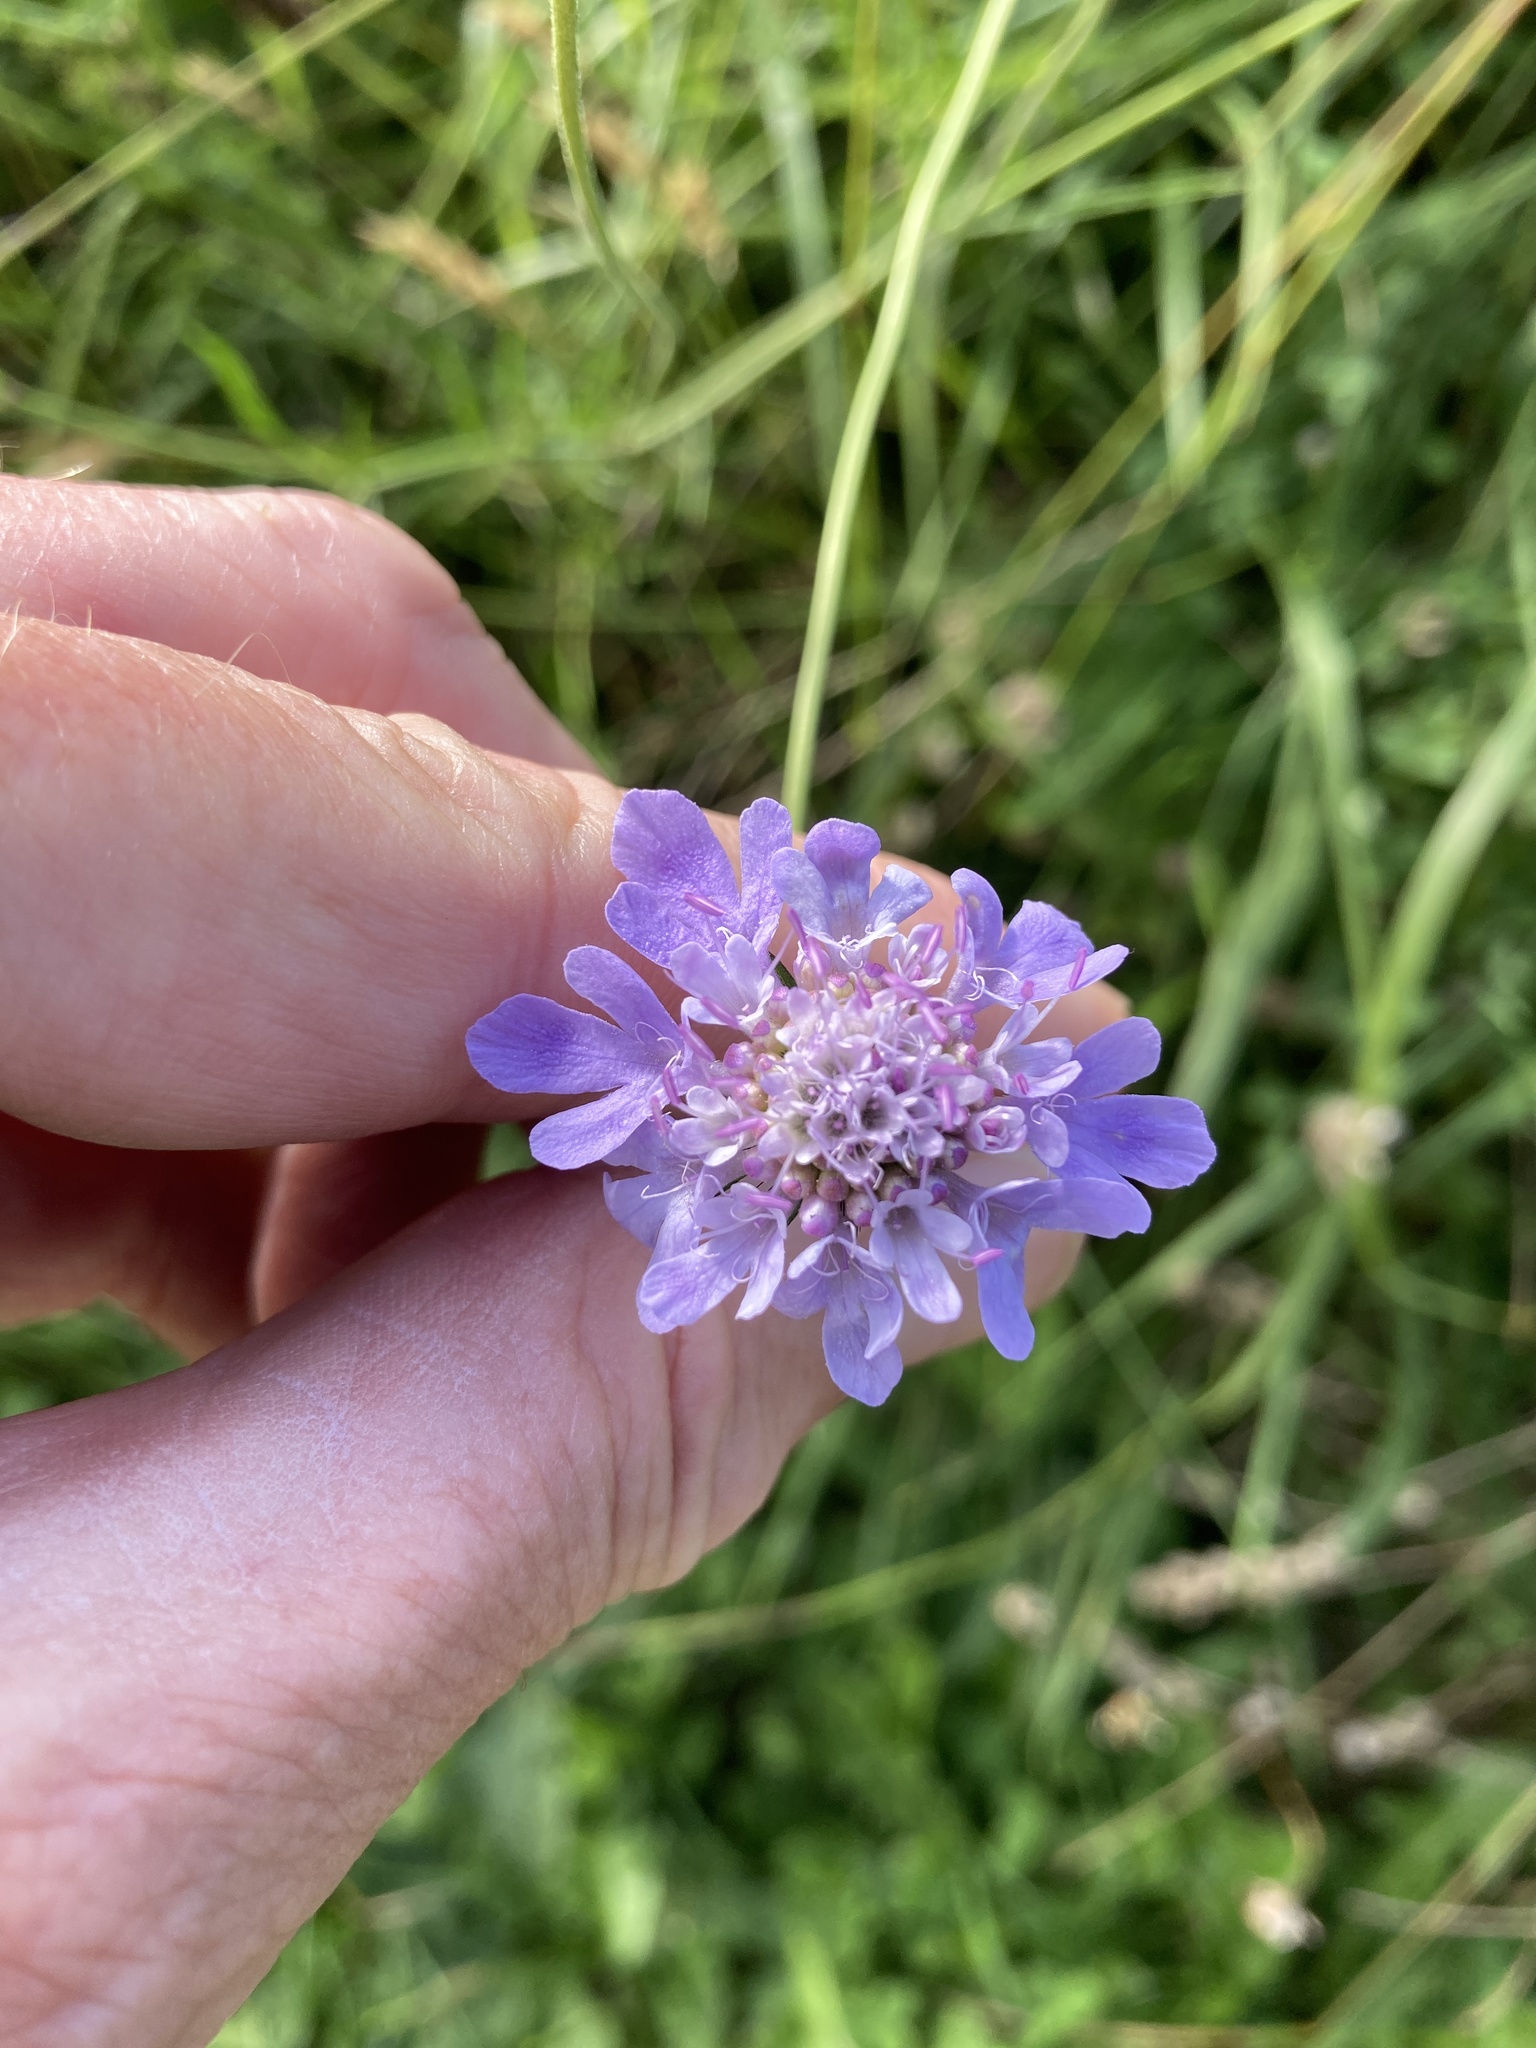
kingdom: Plantae
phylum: Tracheophyta
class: Magnoliopsida
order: Dipsacales
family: Caprifoliaceae
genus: Scabiosa
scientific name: Scabiosa columbaria
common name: Small scabious
